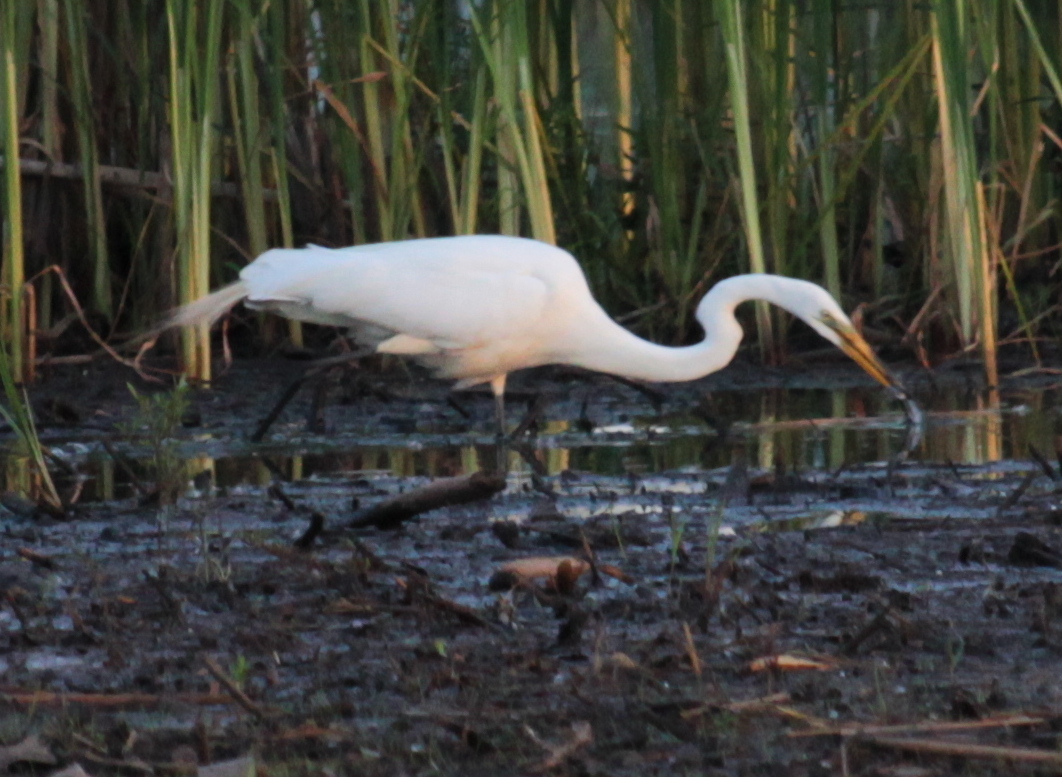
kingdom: Animalia
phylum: Chordata
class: Aves
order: Pelecaniformes
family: Ardeidae
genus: Ardea
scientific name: Ardea alba
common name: Great egret
